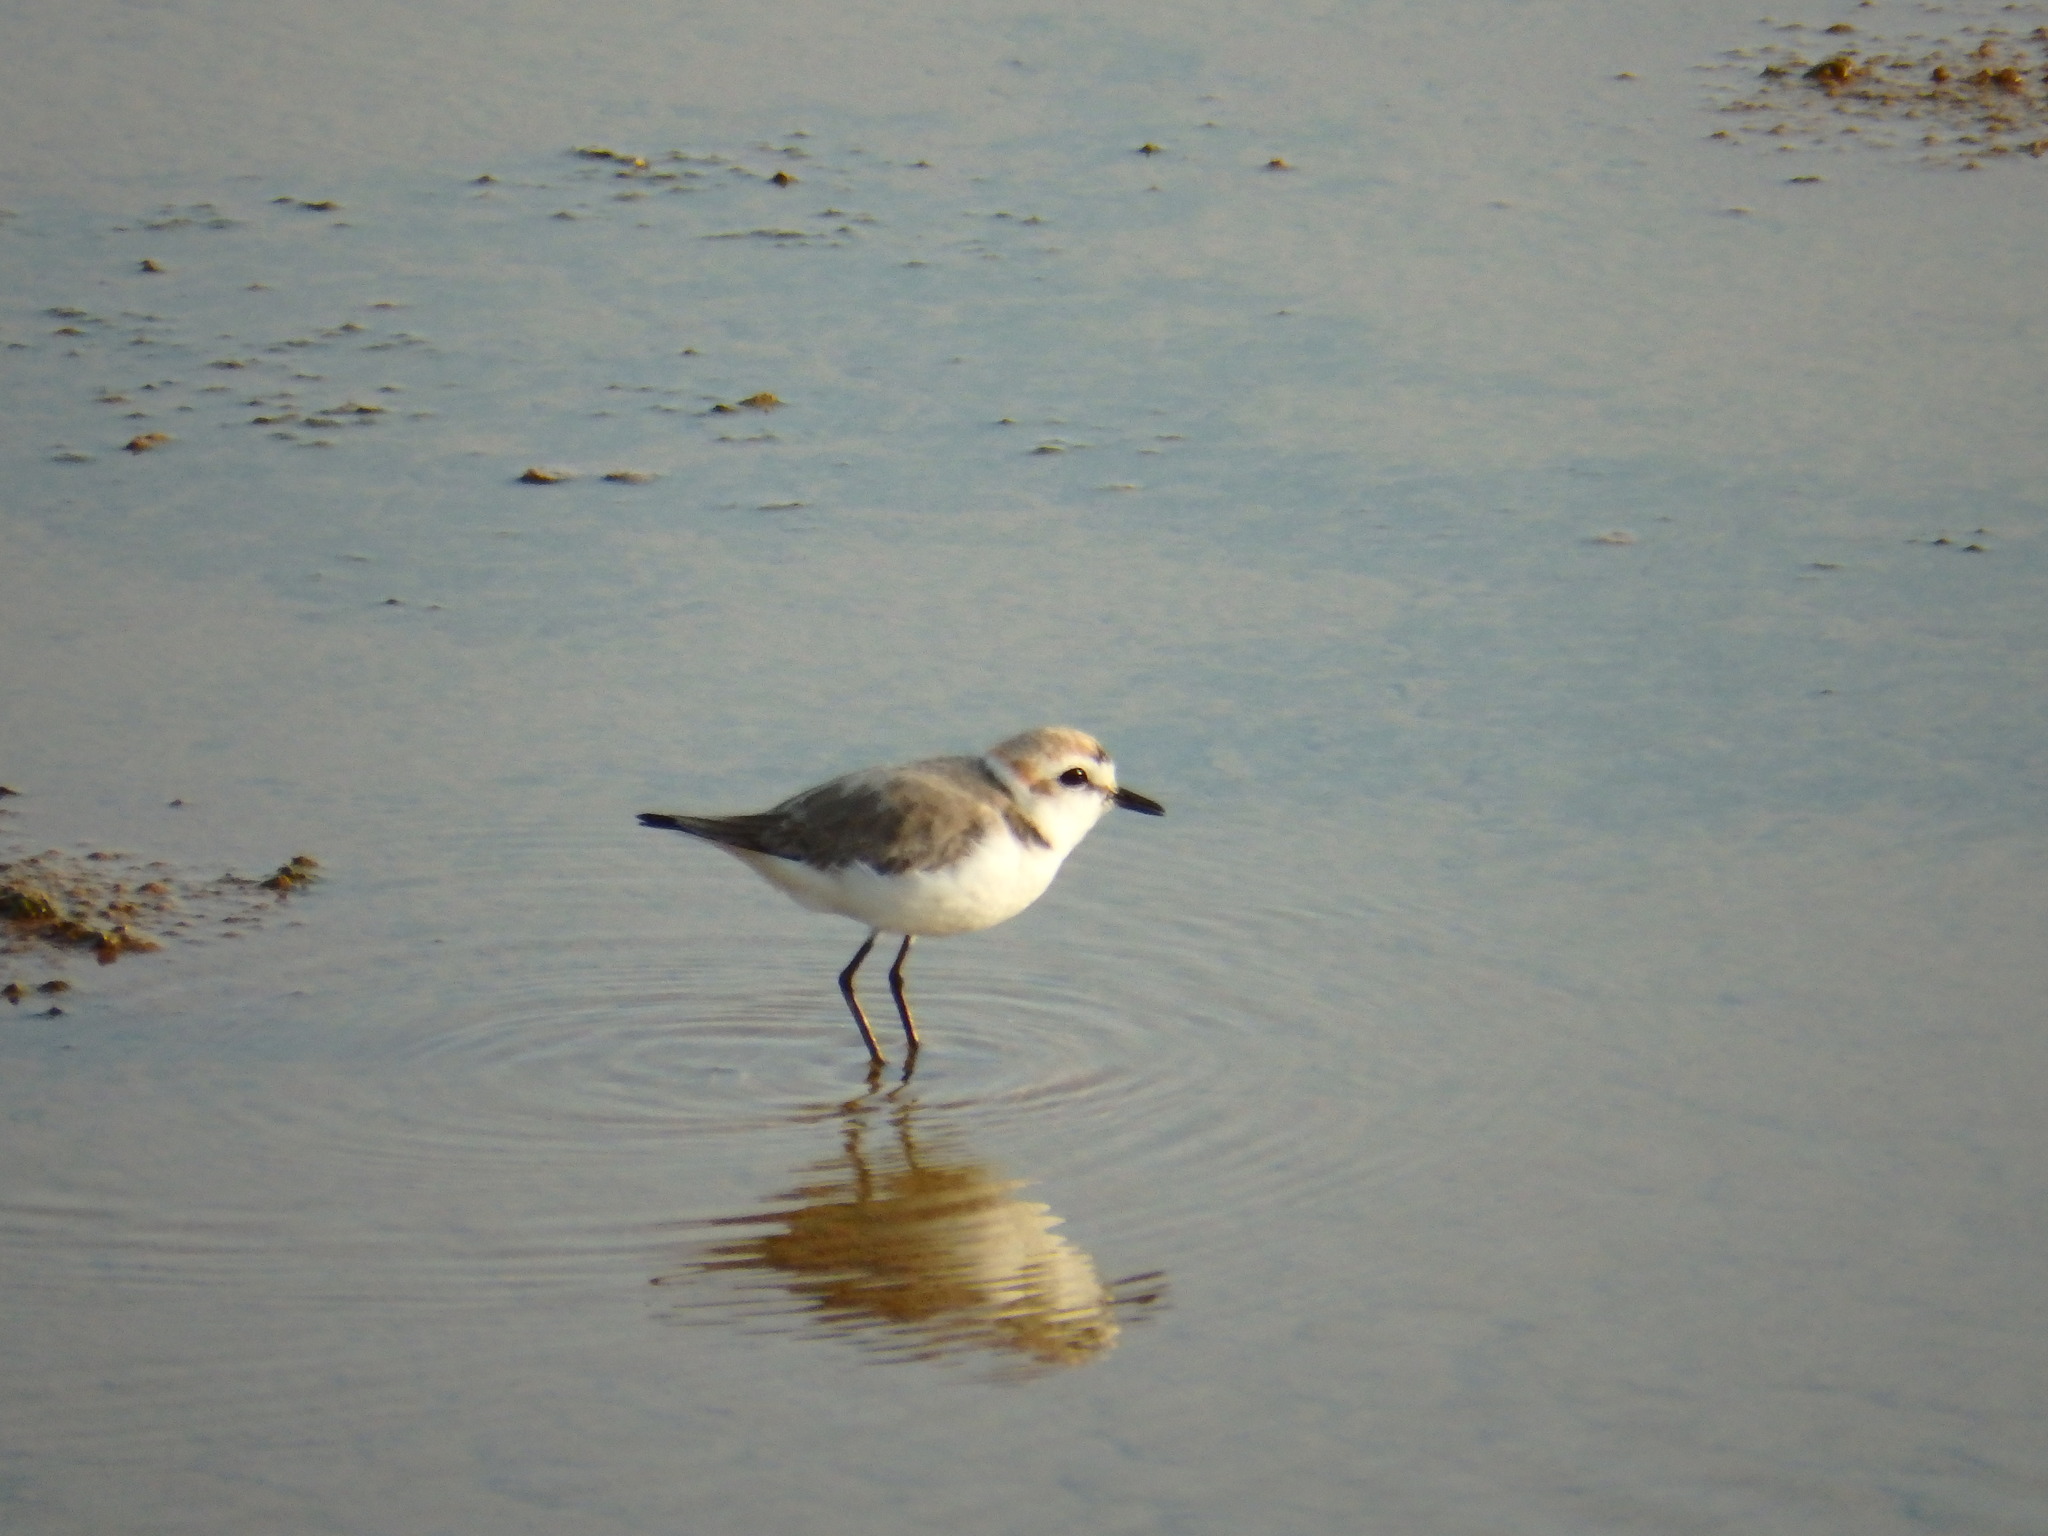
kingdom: Animalia
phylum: Chordata
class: Aves
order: Charadriiformes
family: Charadriidae
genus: Charadrius
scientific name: Charadrius alexandrinus
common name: Kentish plover
